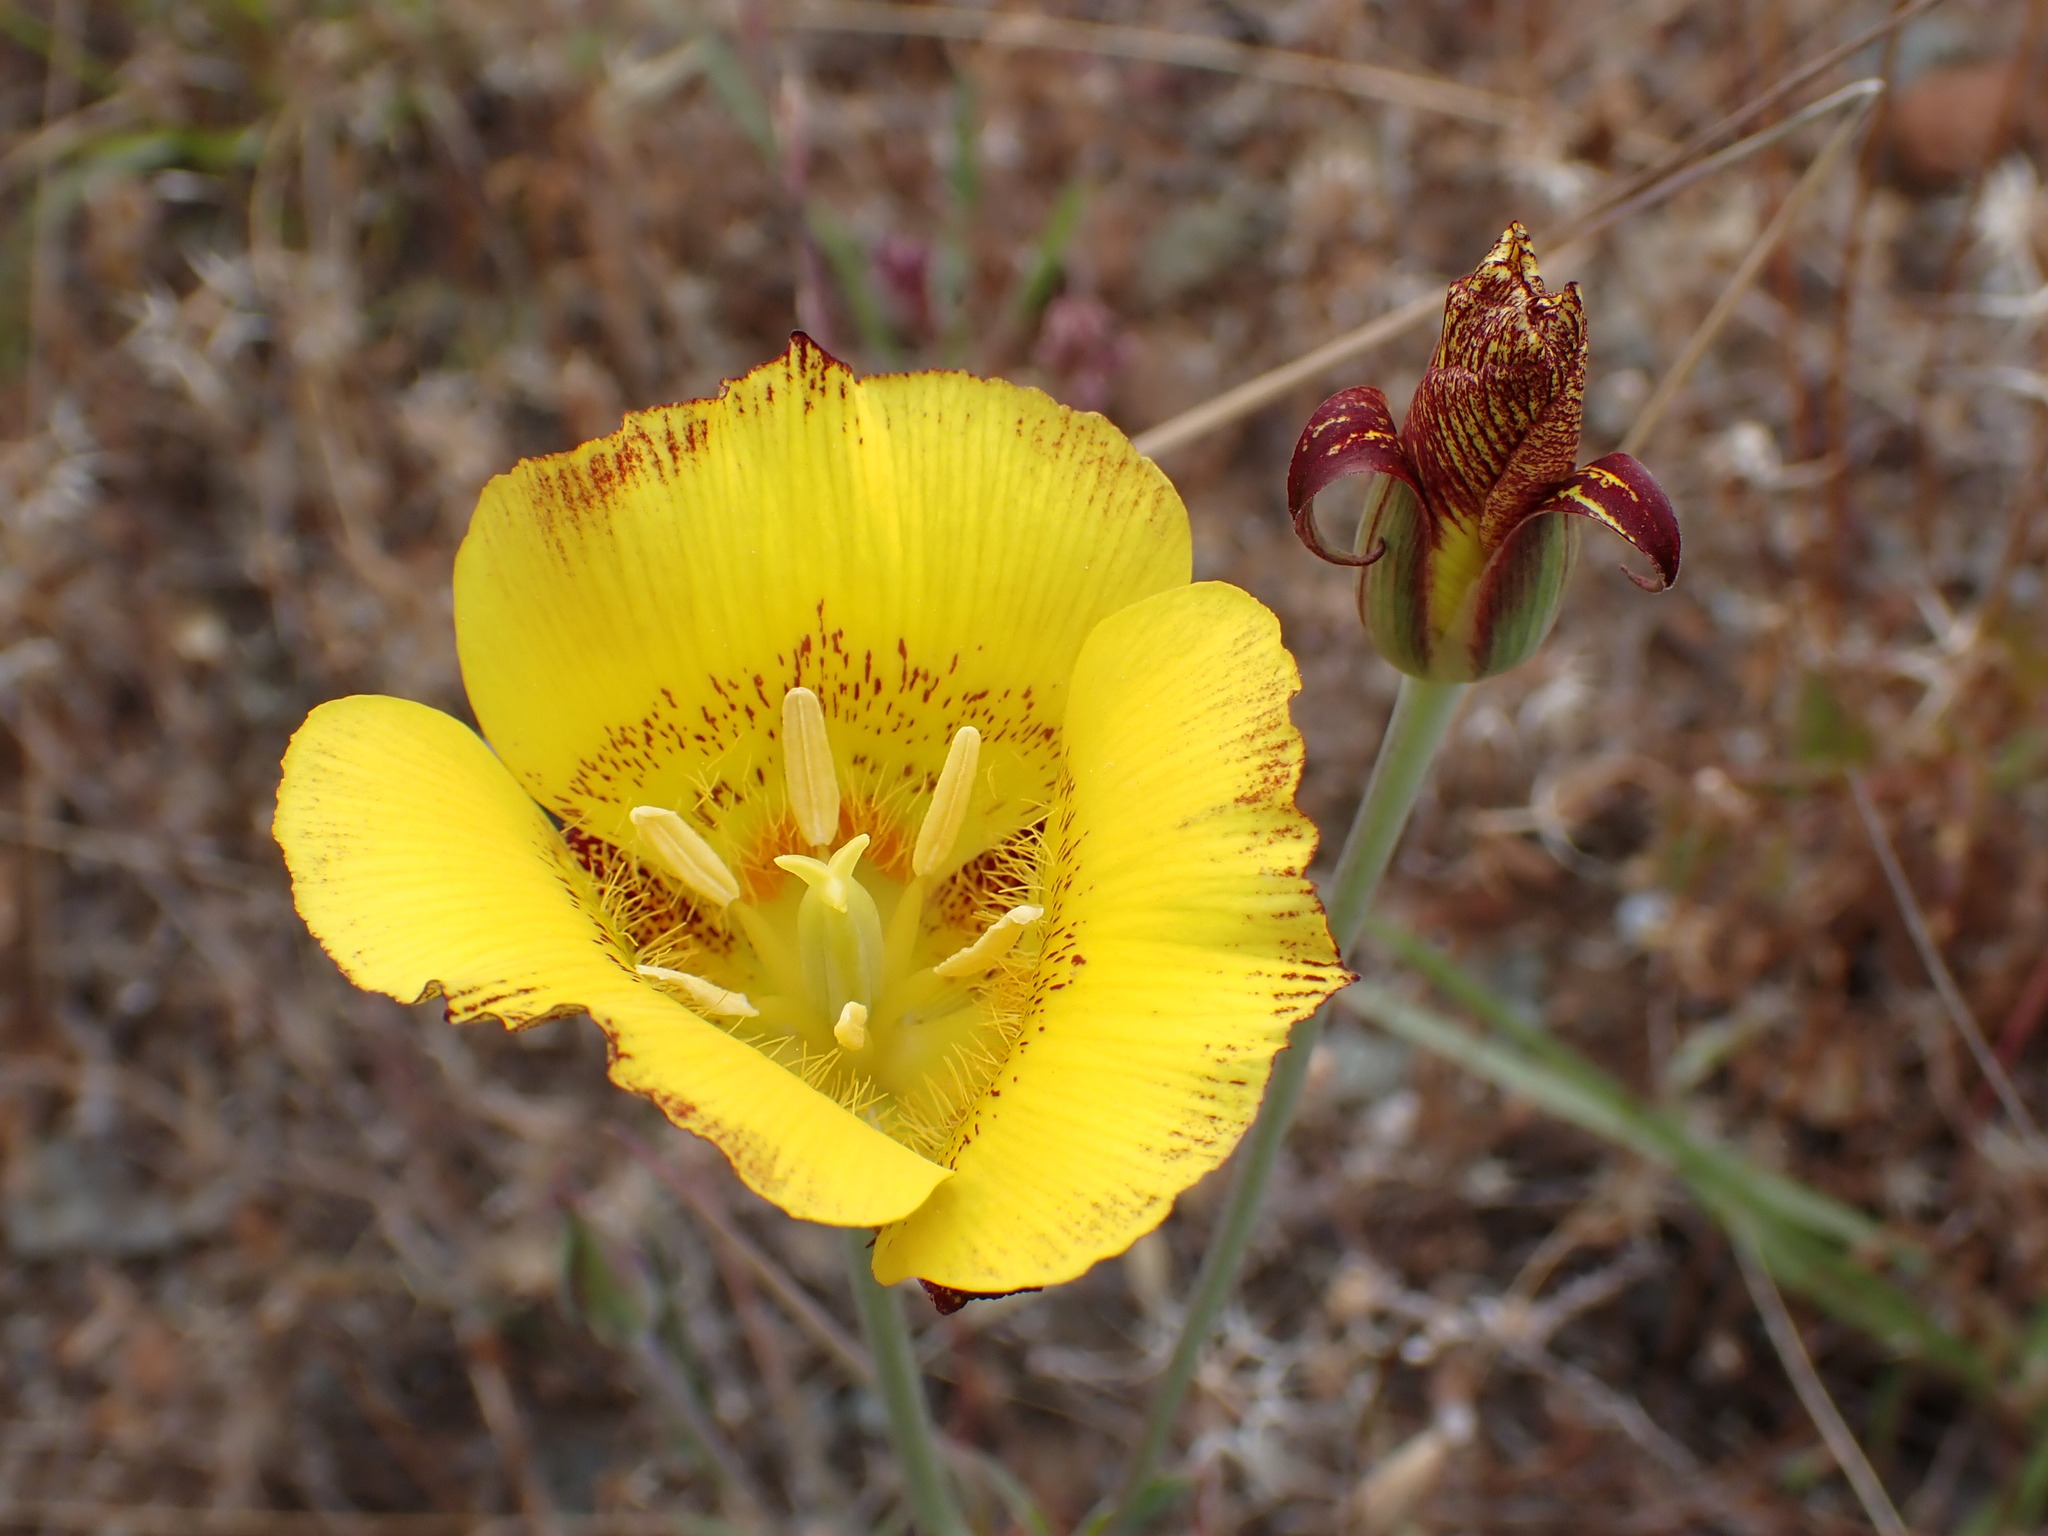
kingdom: Plantae
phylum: Tracheophyta
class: Liliopsida
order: Liliales
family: Liliaceae
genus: Calochortus
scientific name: Calochortus luteus
